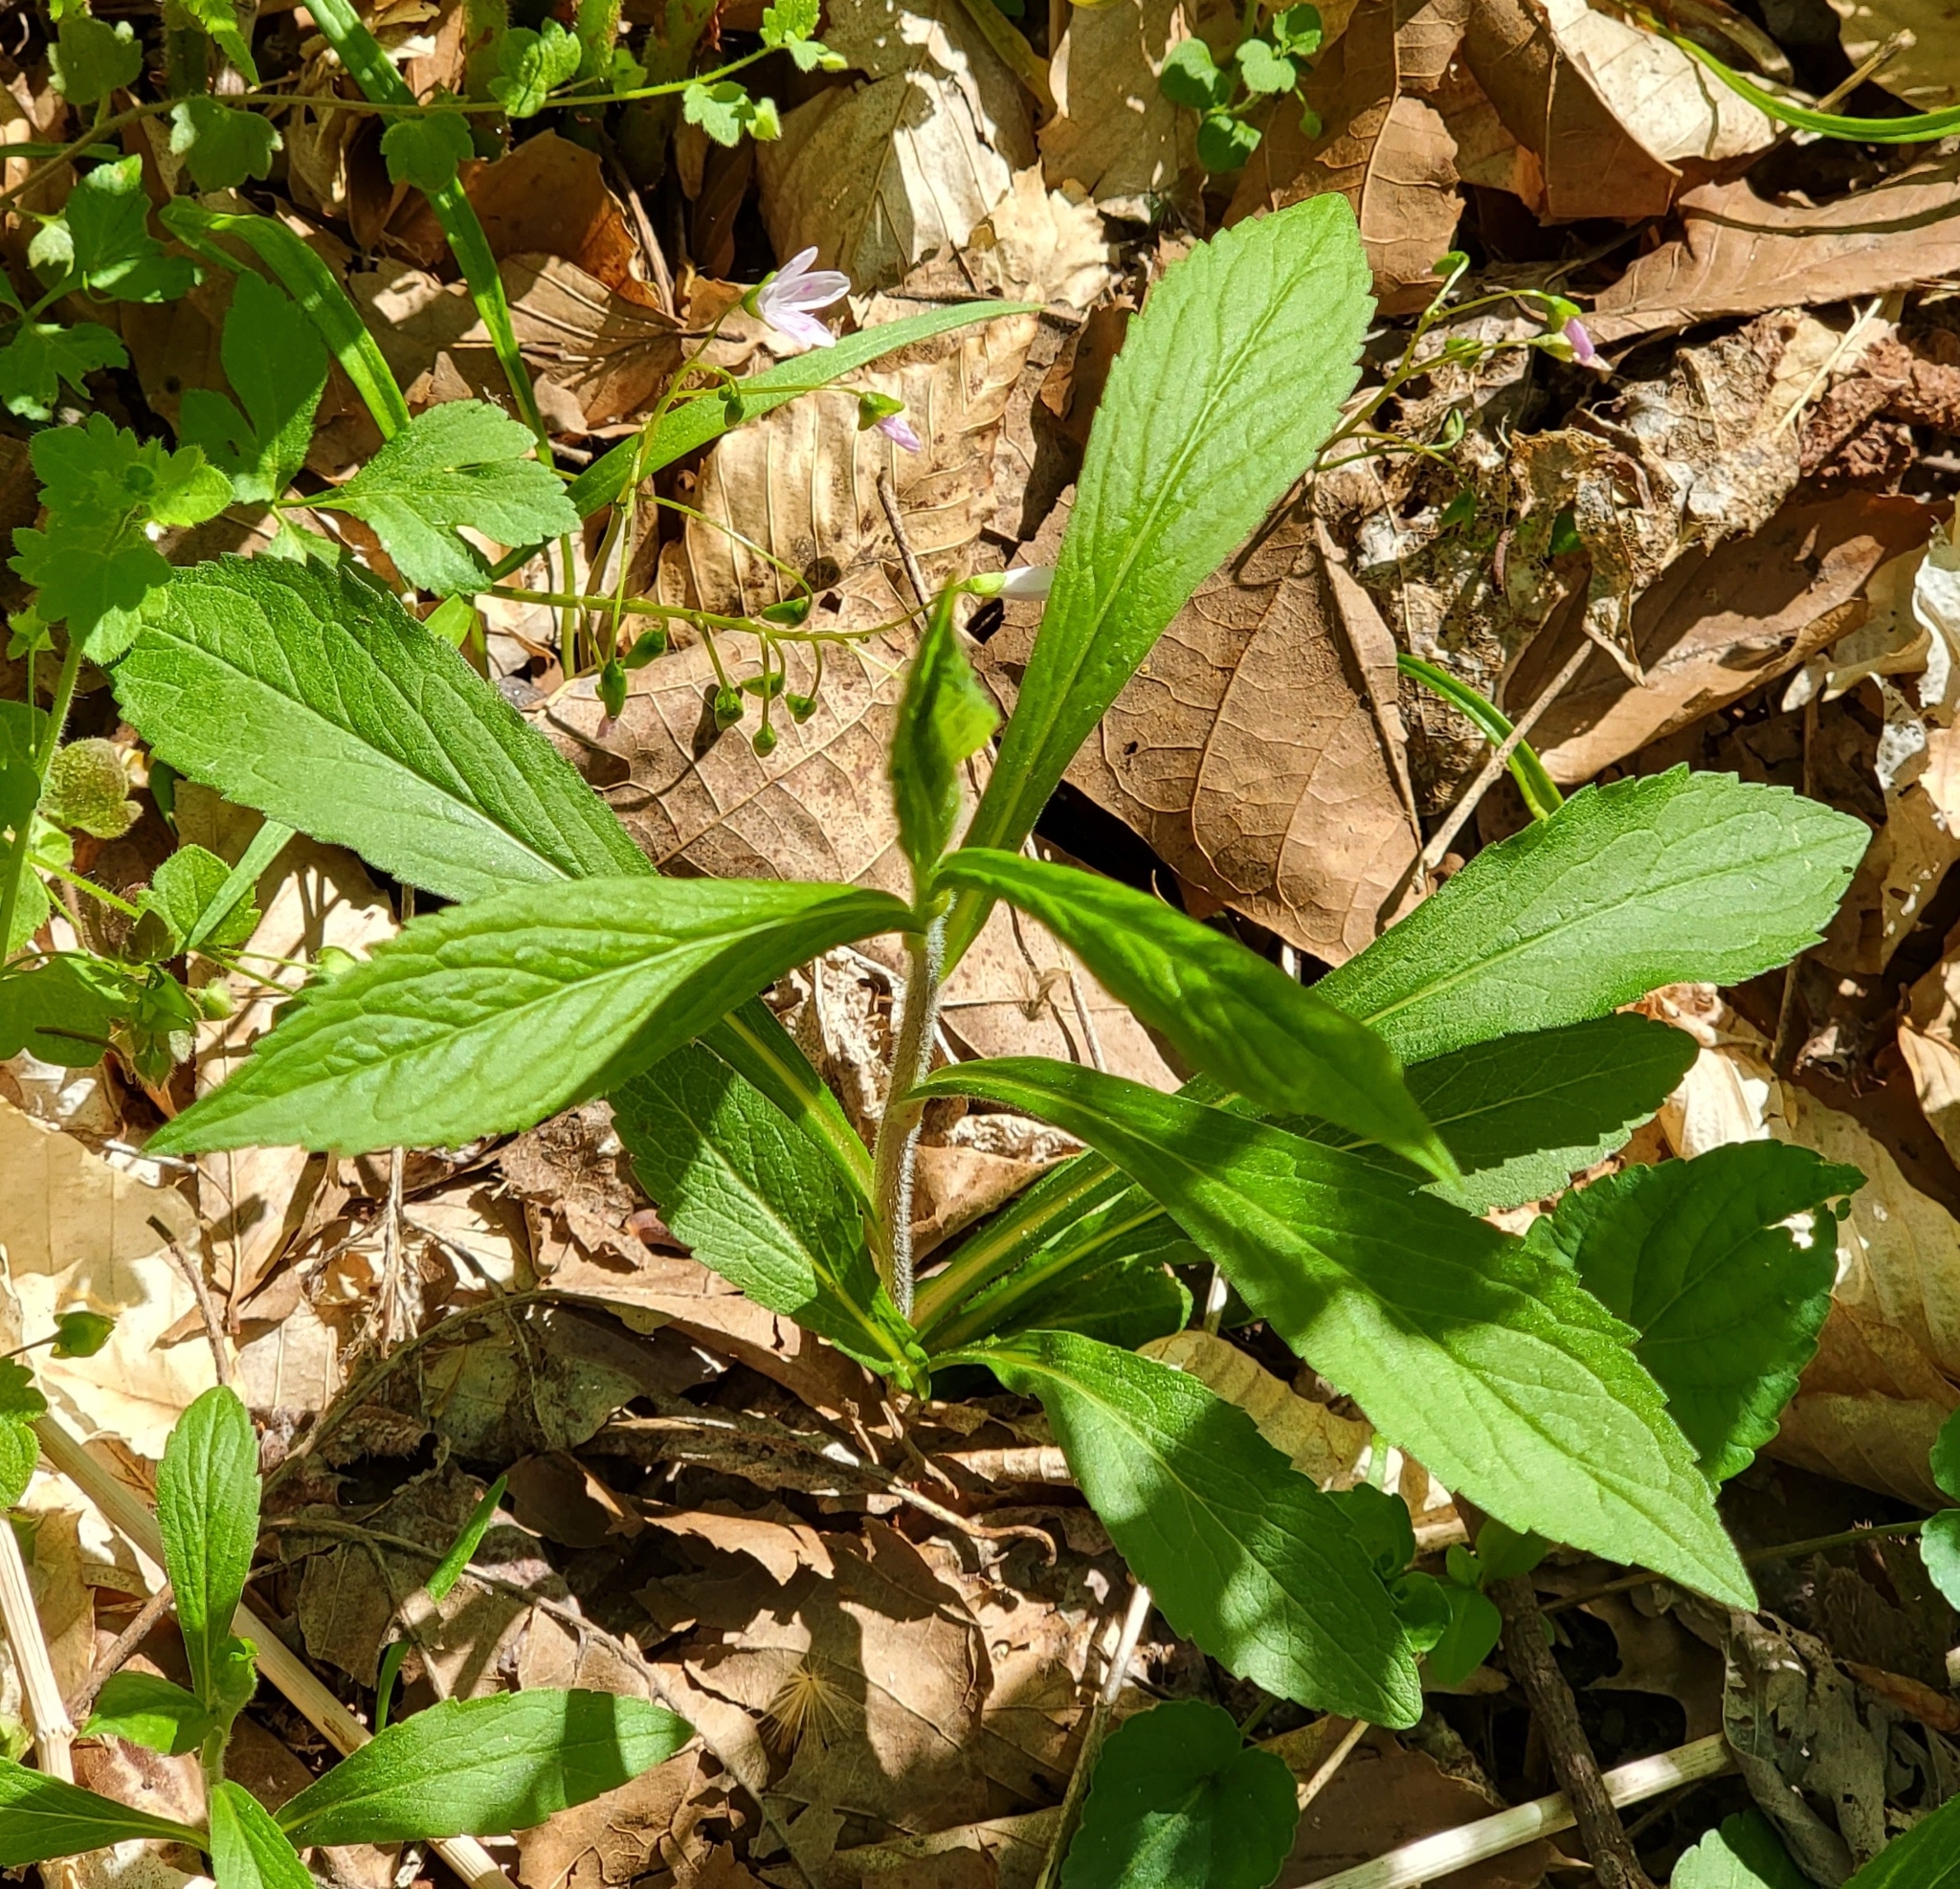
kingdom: Plantae
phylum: Tracheophyta
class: Magnoliopsida
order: Asterales
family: Asteraceae
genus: Solidago
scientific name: Solidago rugosa
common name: Rough-stemmed goldenrod
